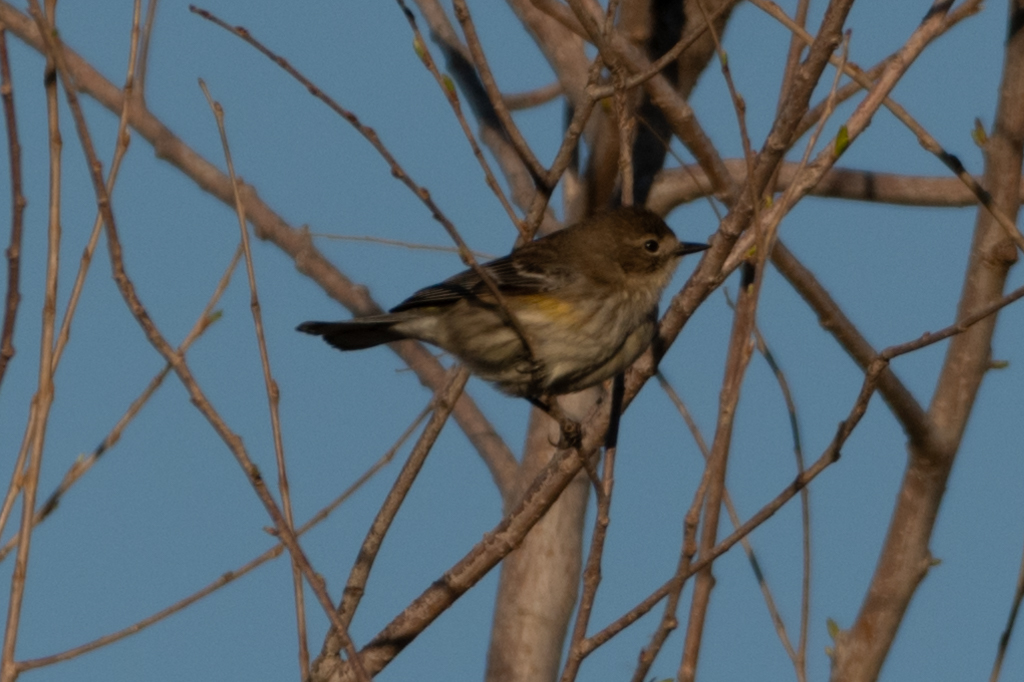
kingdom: Animalia
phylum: Chordata
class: Aves
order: Passeriformes
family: Parulidae
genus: Setophaga
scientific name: Setophaga coronata
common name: Myrtle warbler
